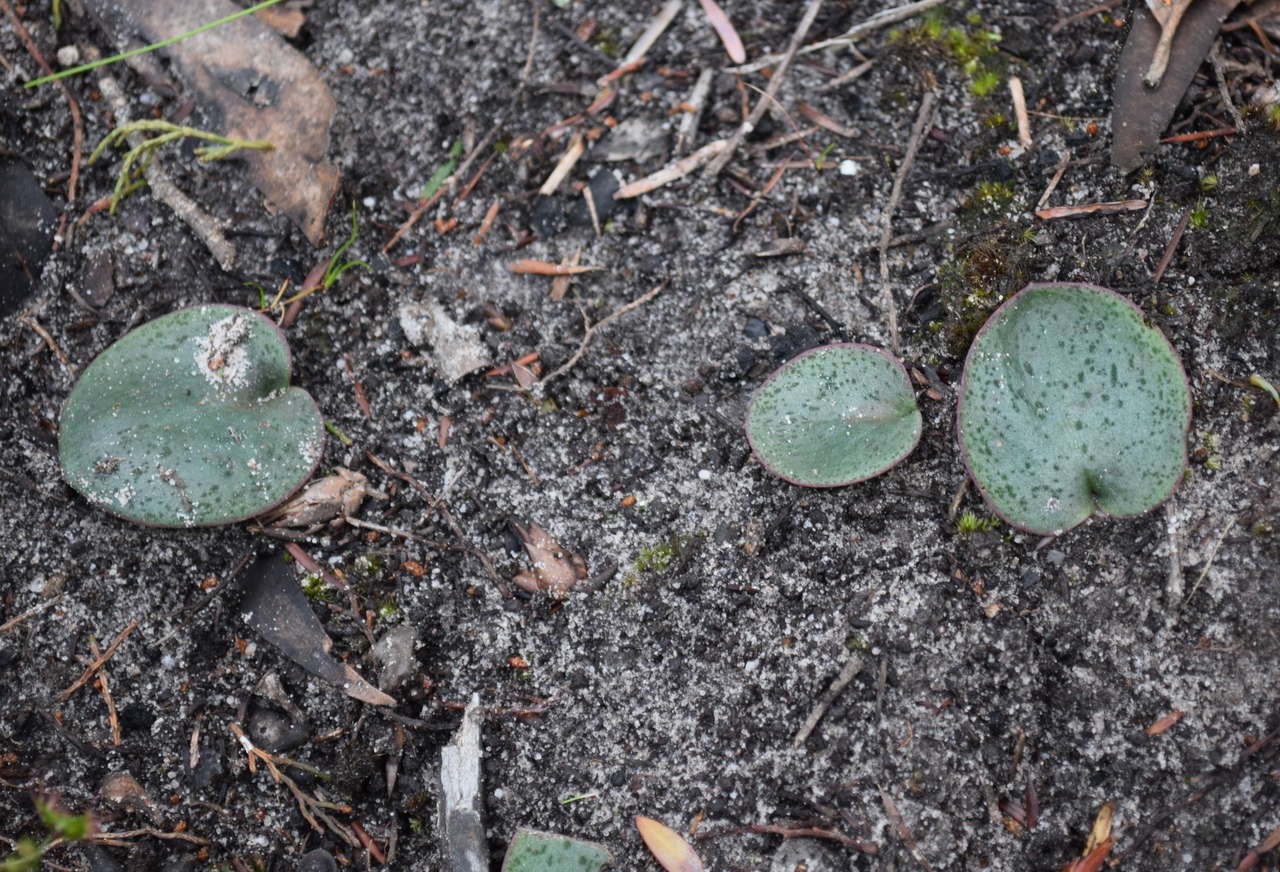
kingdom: Plantae
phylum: Tracheophyta
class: Liliopsida
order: Asparagales
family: Orchidaceae
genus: Pyrorchis
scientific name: Pyrorchis nigricans
